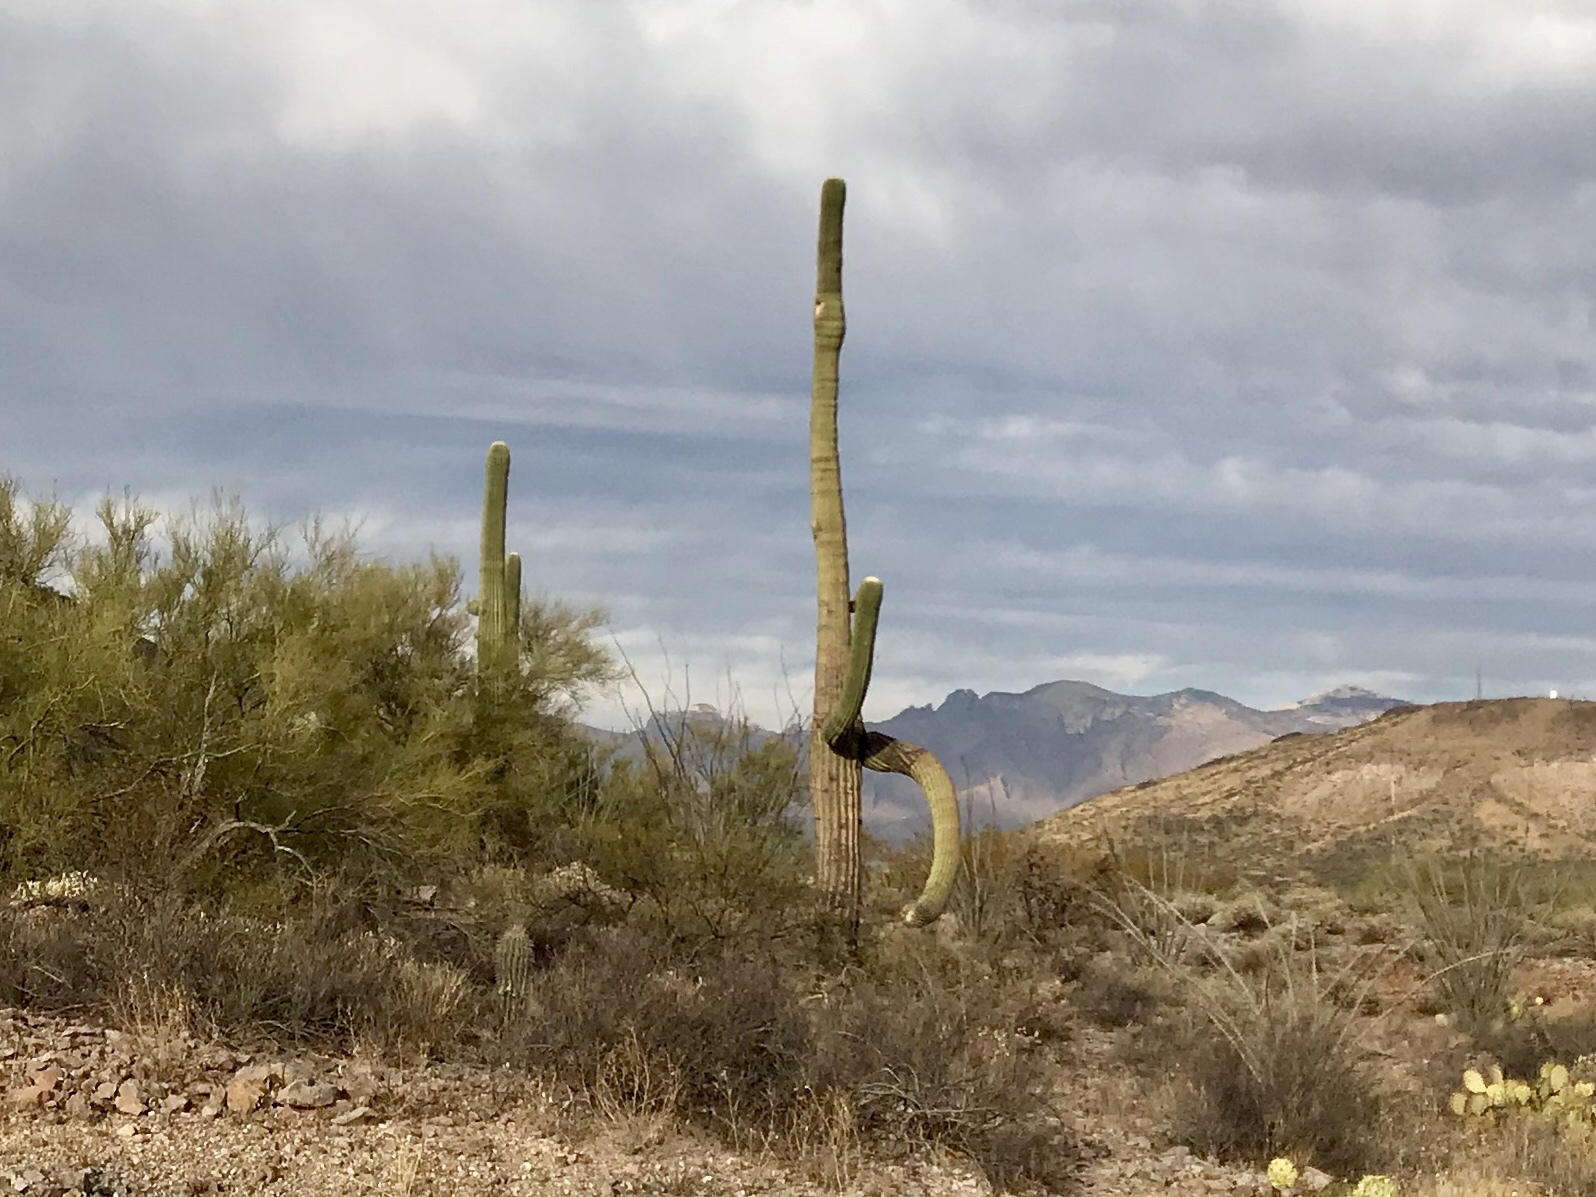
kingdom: Plantae
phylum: Tracheophyta
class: Magnoliopsida
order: Caryophyllales
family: Cactaceae
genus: Carnegiea
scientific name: Carnegiea gigantea
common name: Saguaro
